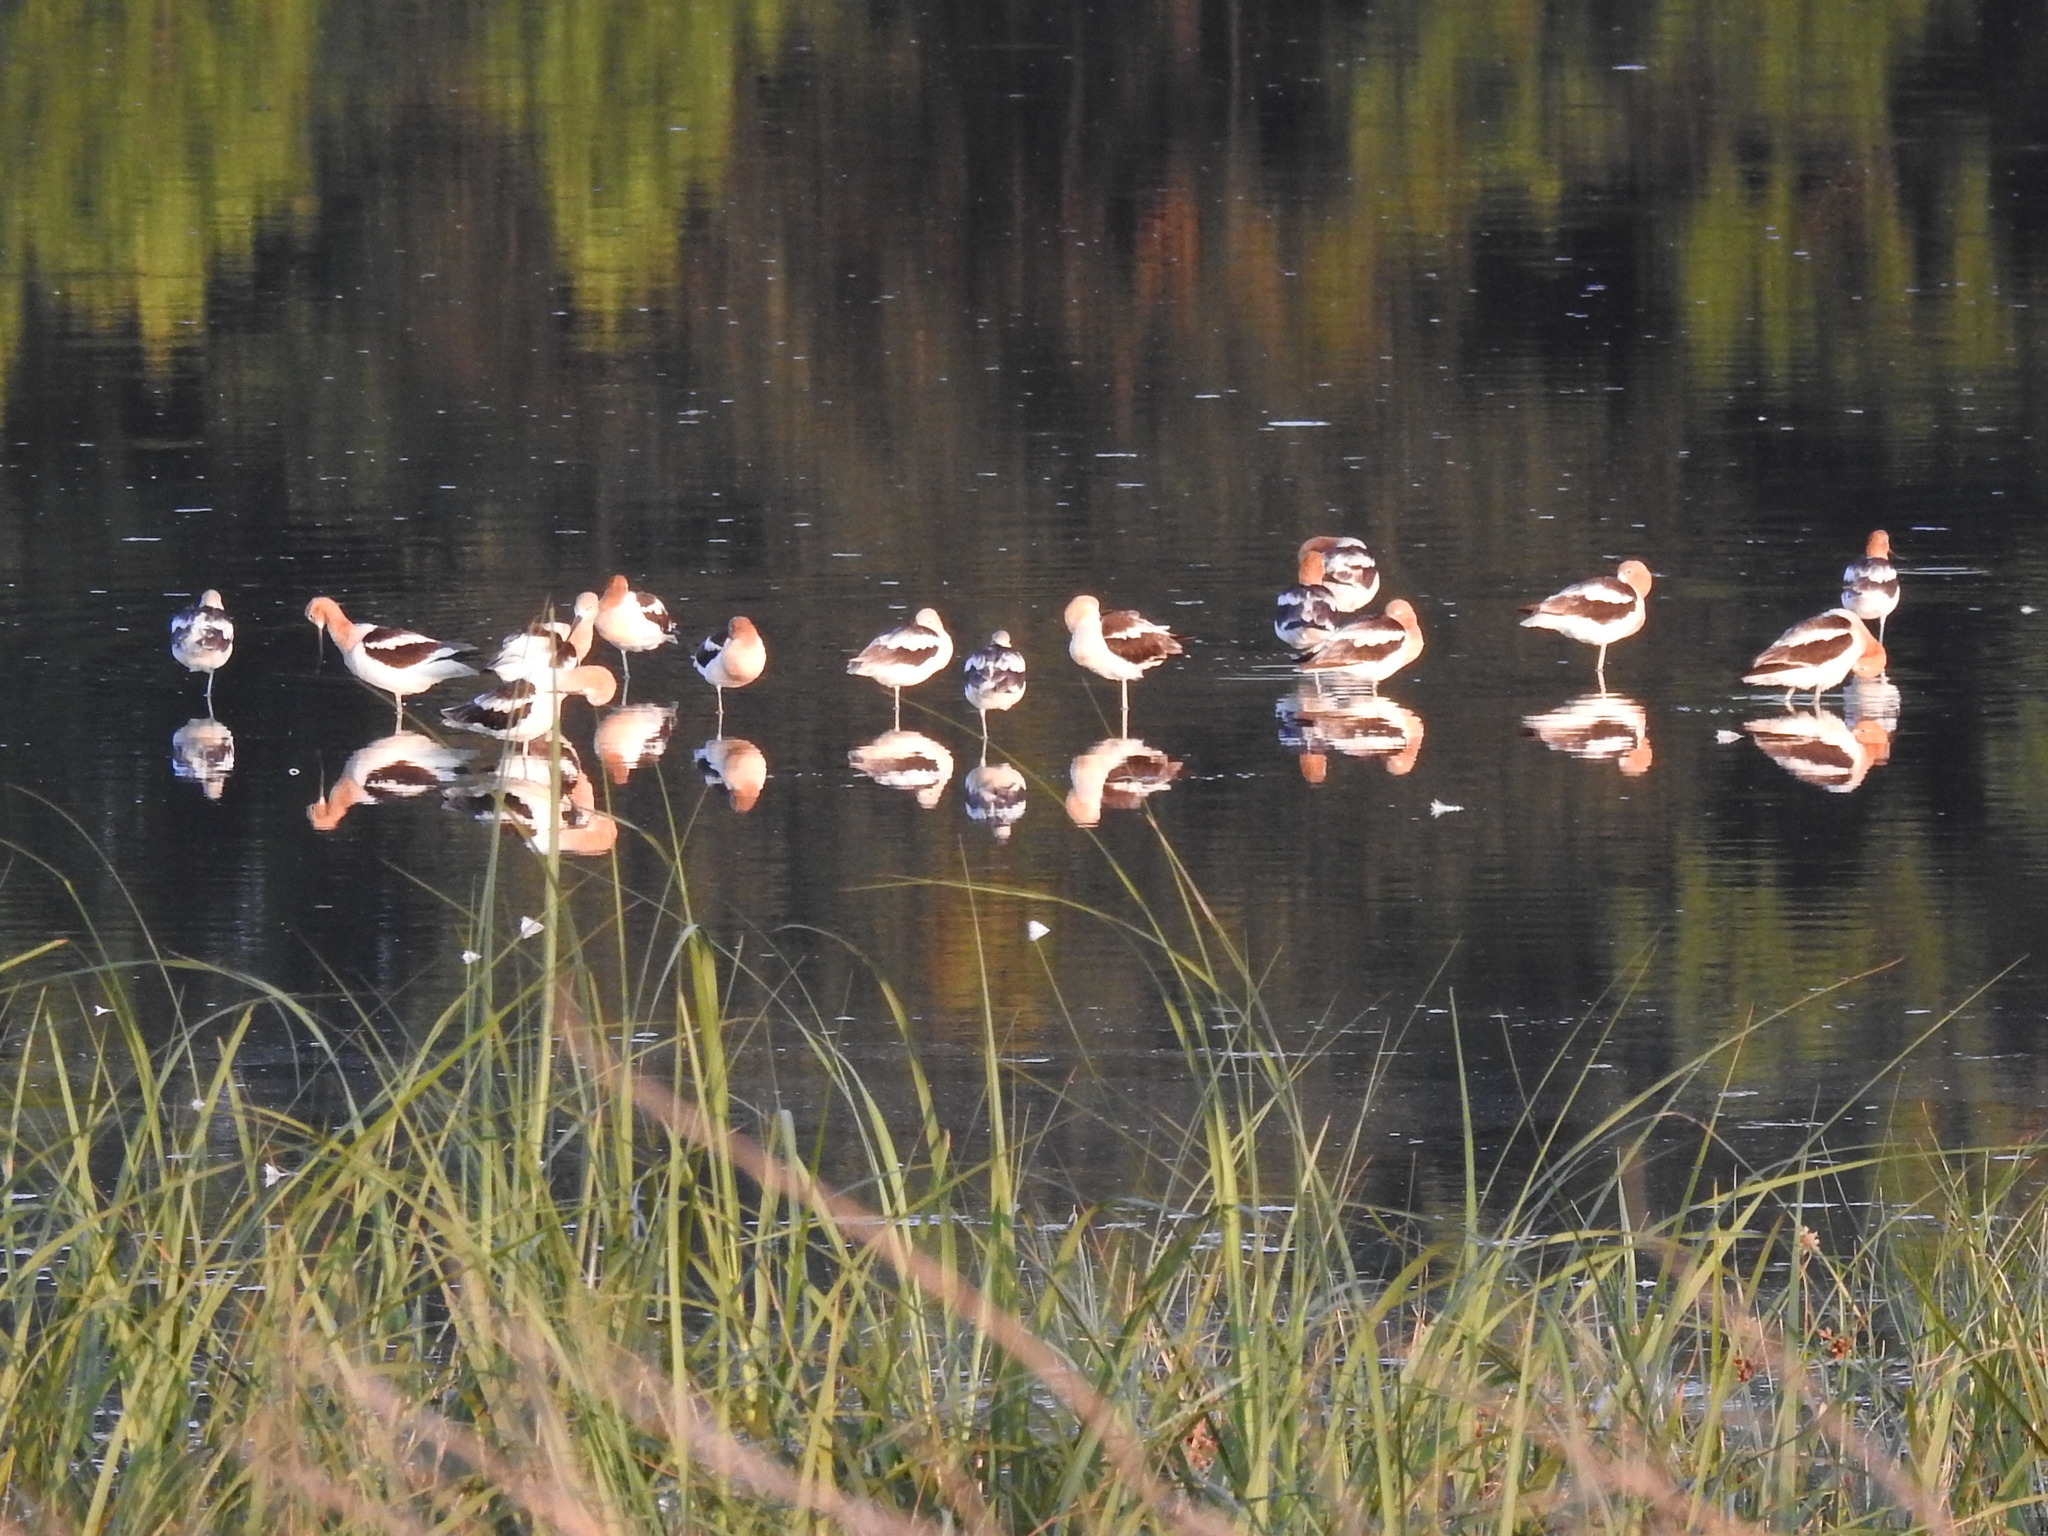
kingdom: Animalia
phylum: Chordata
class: Aves
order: Charadriiformes
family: Recurvirostridae
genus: Recurvirostra
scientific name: Recurvirostra americana
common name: American avocet
